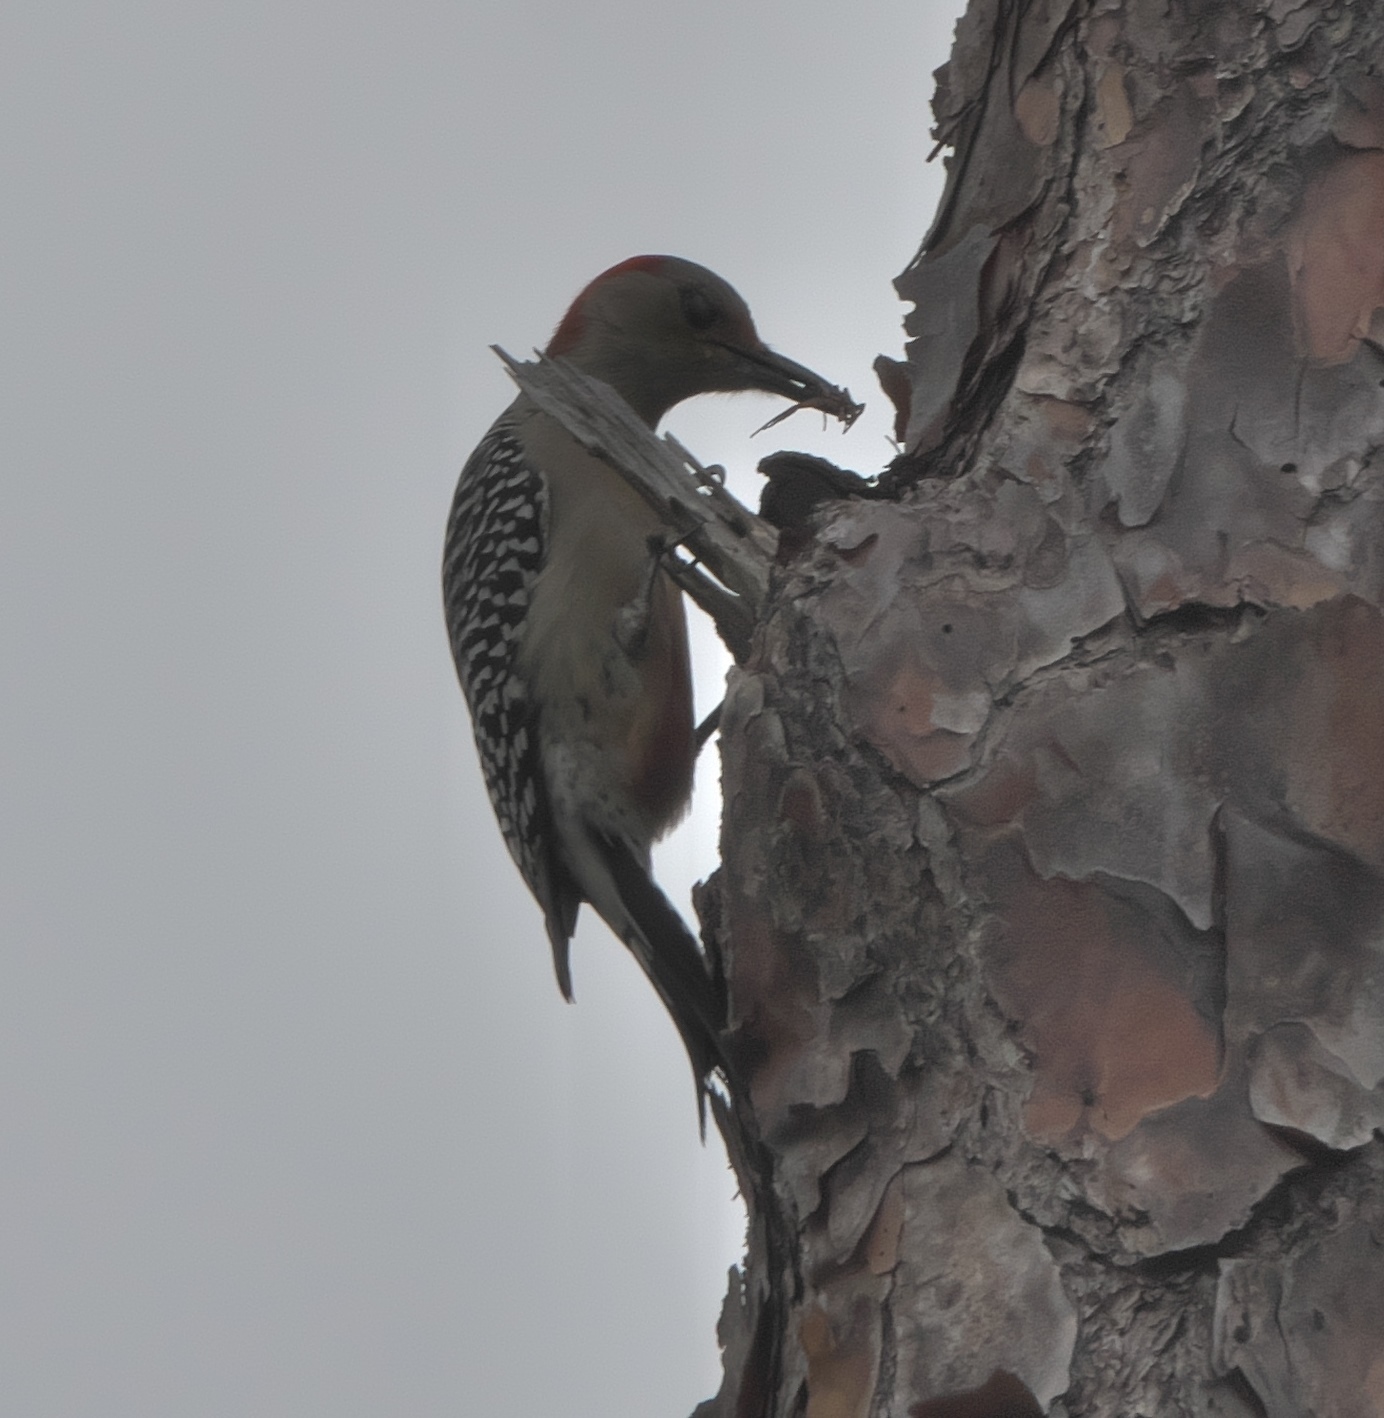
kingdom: Animalia
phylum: Chordata
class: Aves
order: Piciformes
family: Picidae
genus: Melanerpes
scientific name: Melanerpes carolinus
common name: Red-bellied woodpecker
